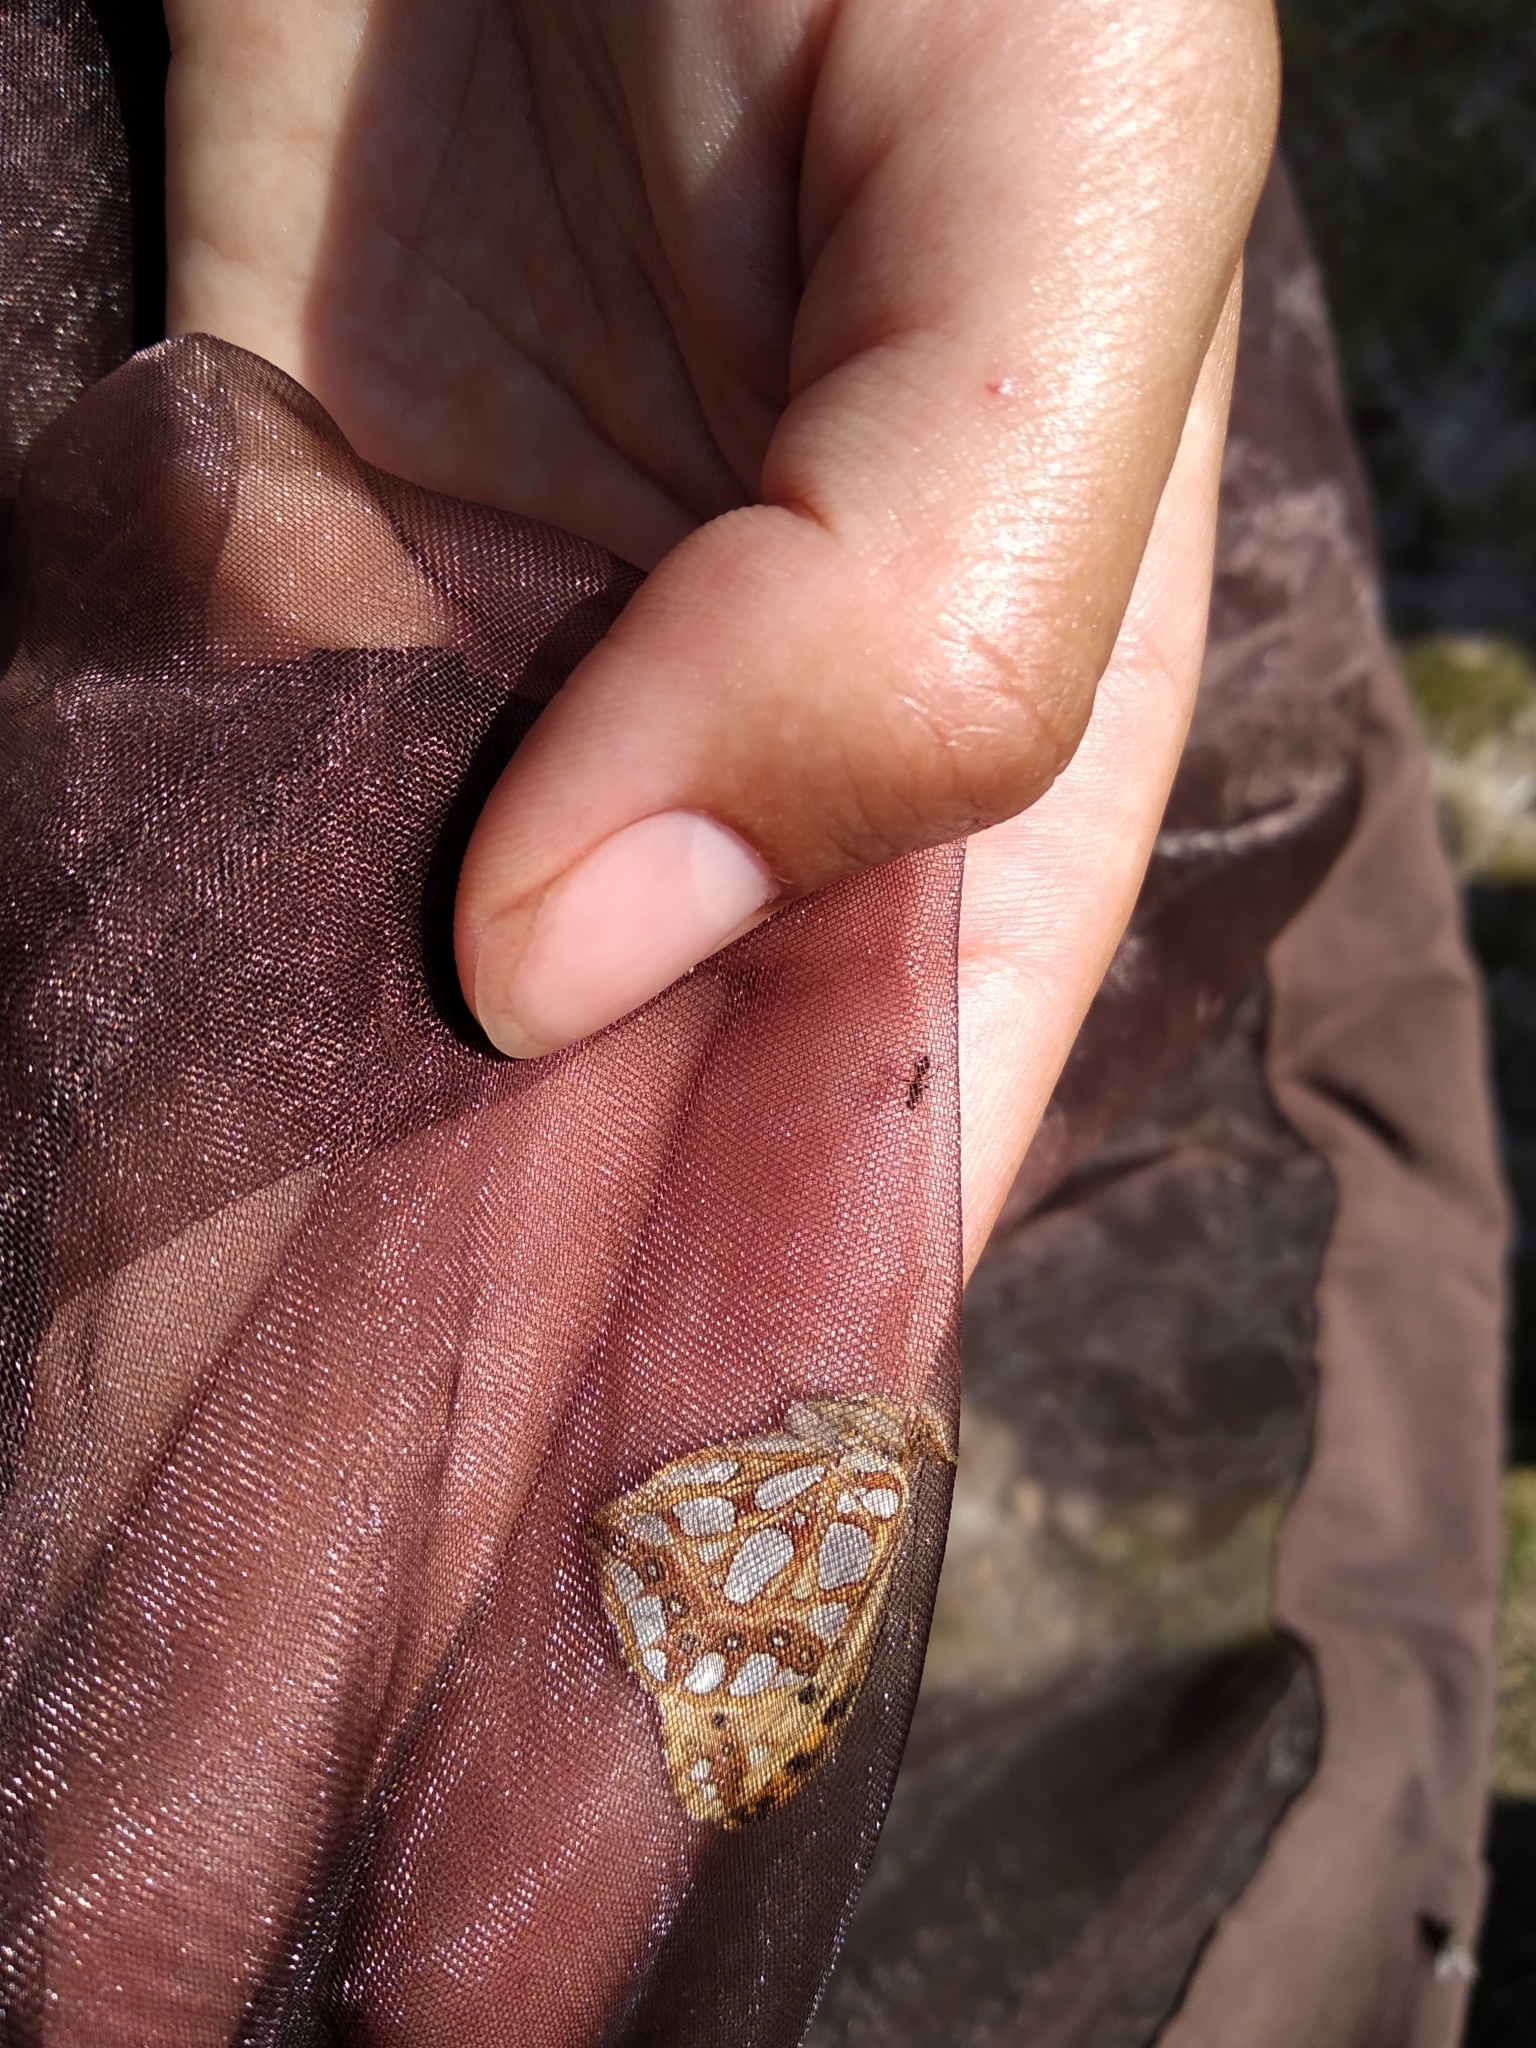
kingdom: Animalia
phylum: Arthropoda
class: Insecta
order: Lepidoptera
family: Nymphalidae
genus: Issoria
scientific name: Issoria lathonia
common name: Queen of spain fritillary
